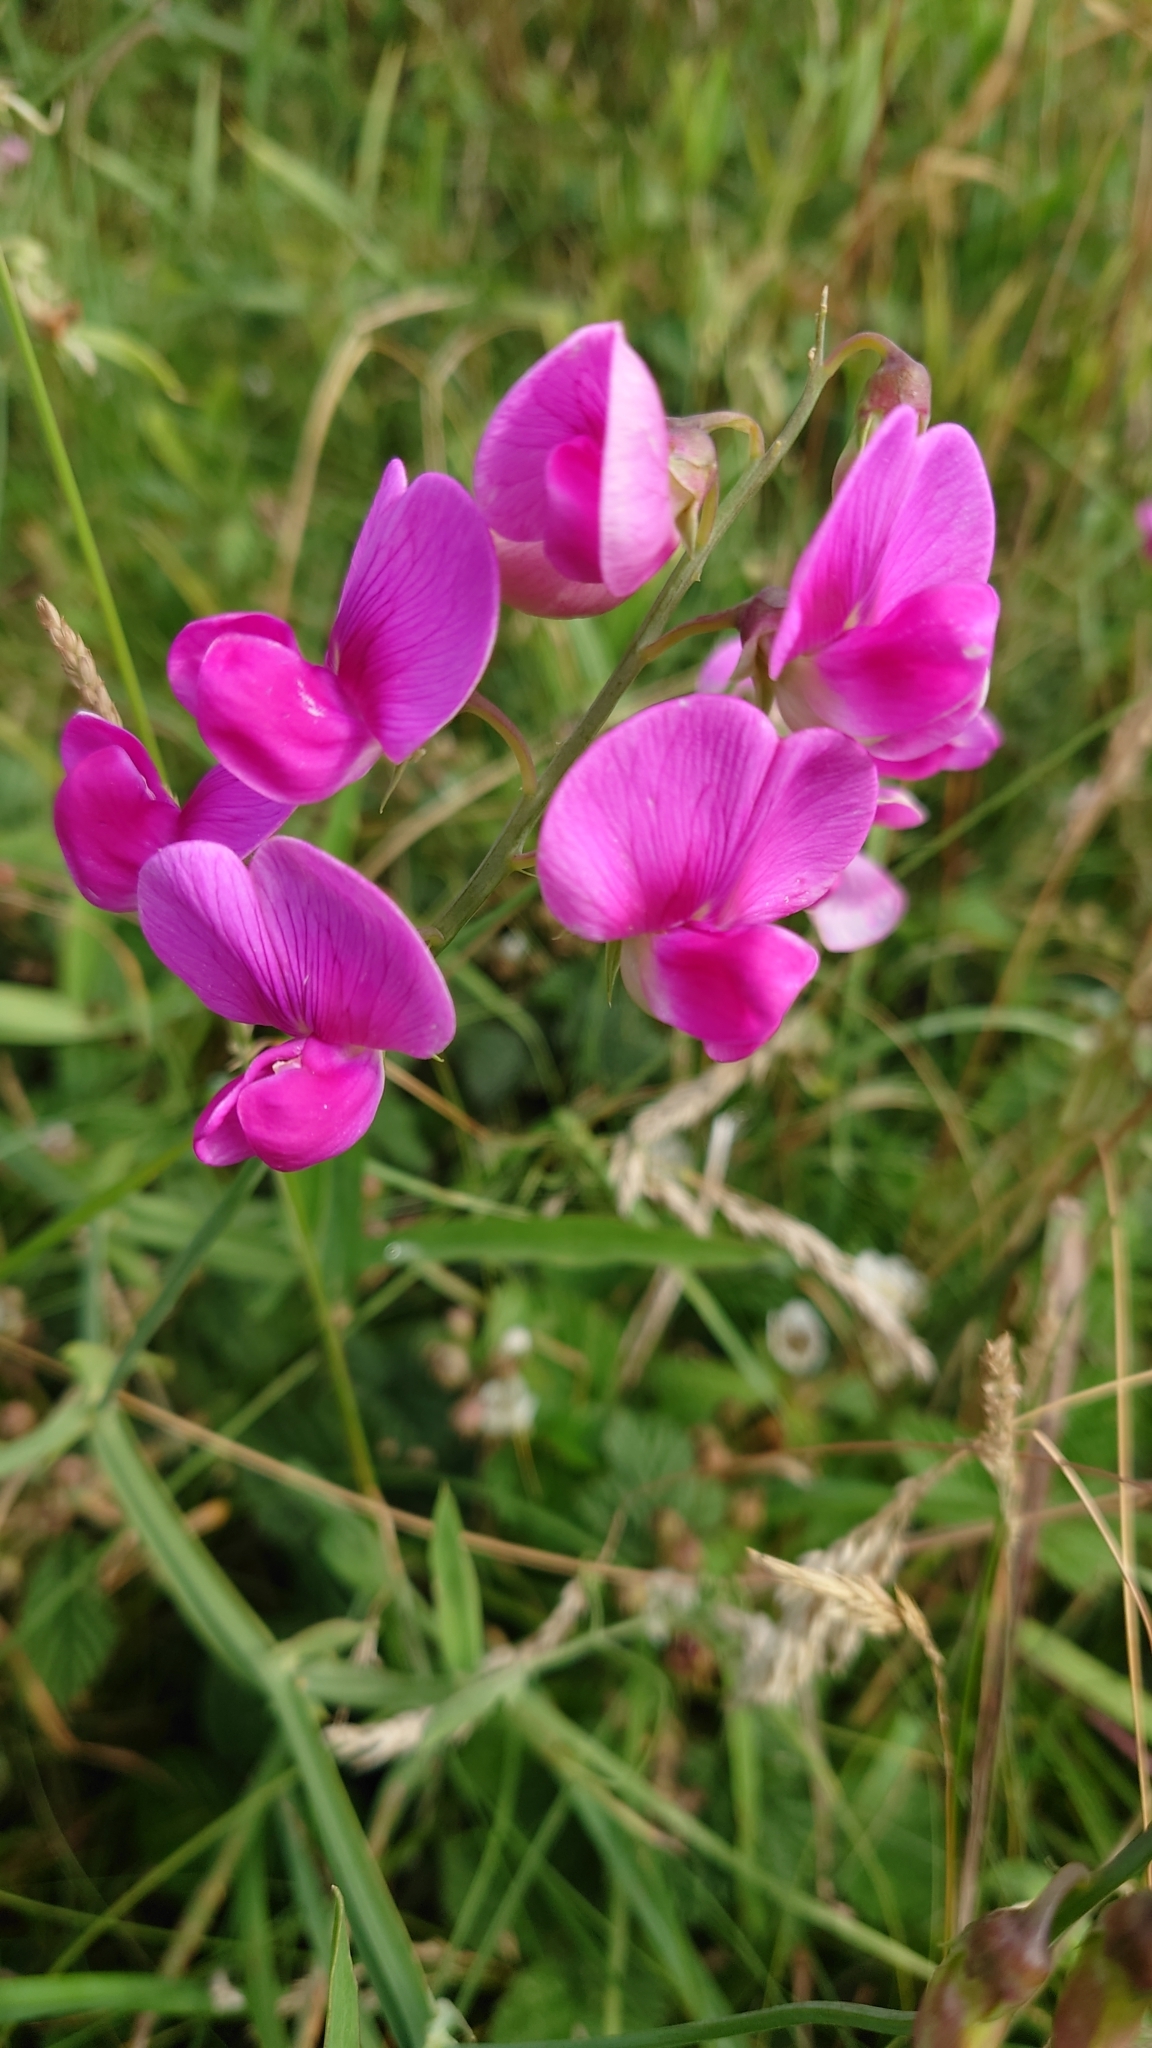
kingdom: Plantae
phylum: Tracheophyta
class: Magnoliopsida
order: Fabales
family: Fabaceae
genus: Lathyrus
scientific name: Lathyrus latifolius
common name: Perennial pea
